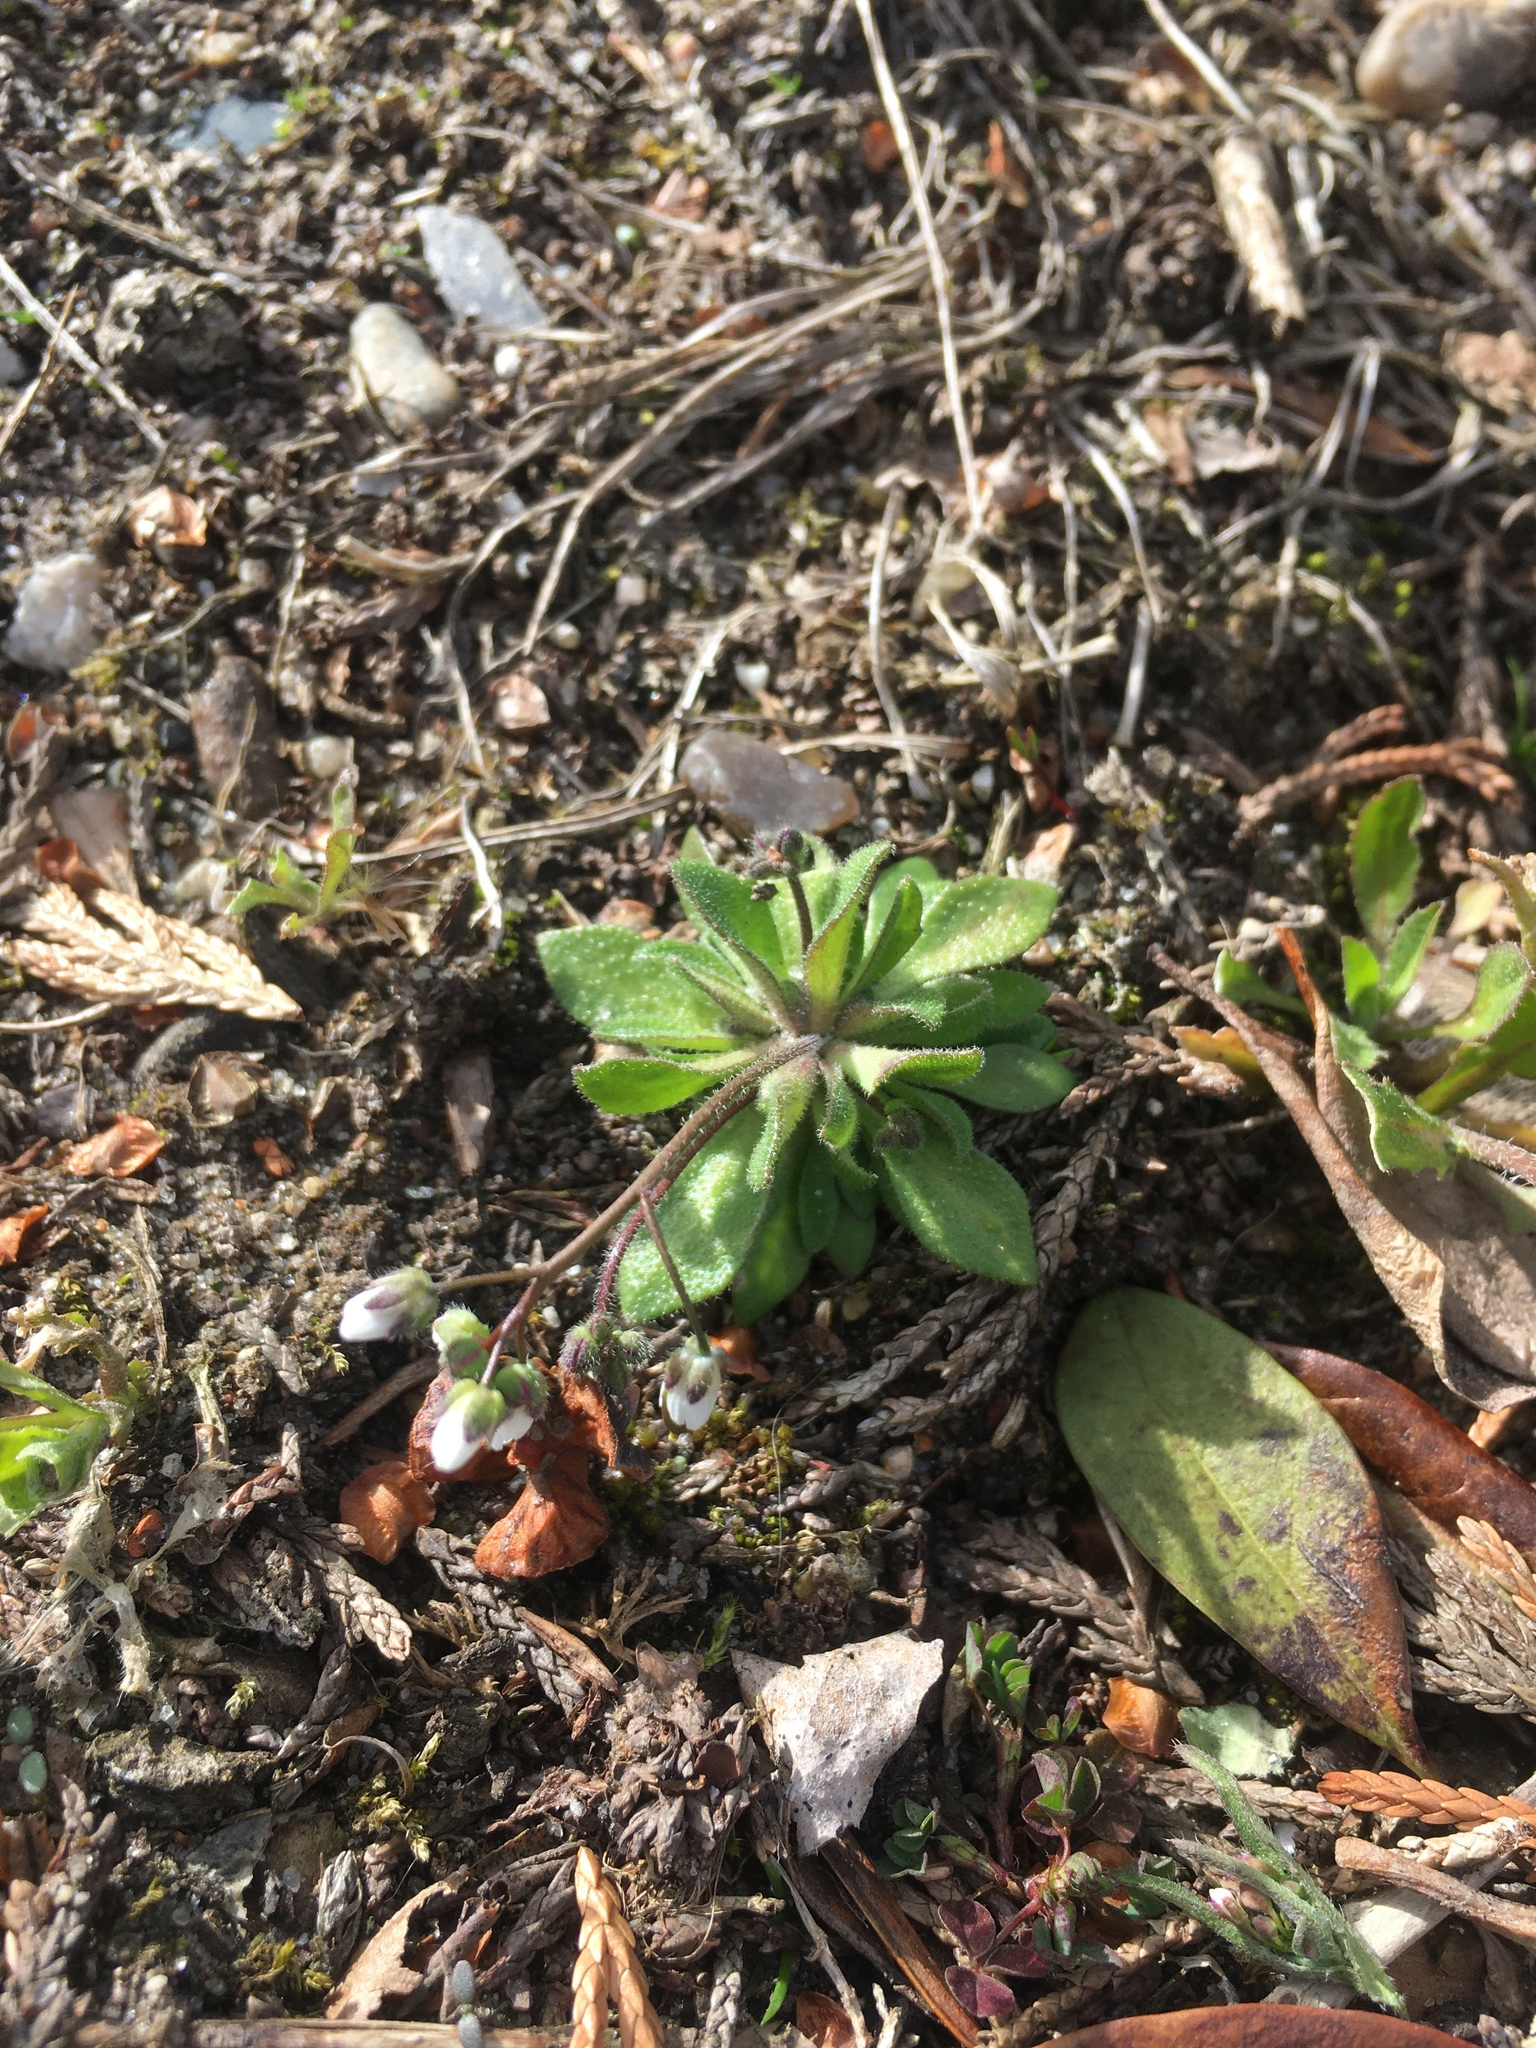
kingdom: Plantae
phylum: Tracheophyta
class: Magnoliopsida
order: Brassicales
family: Brassicaceae
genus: Draba
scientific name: Draba verna
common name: Spring draba
